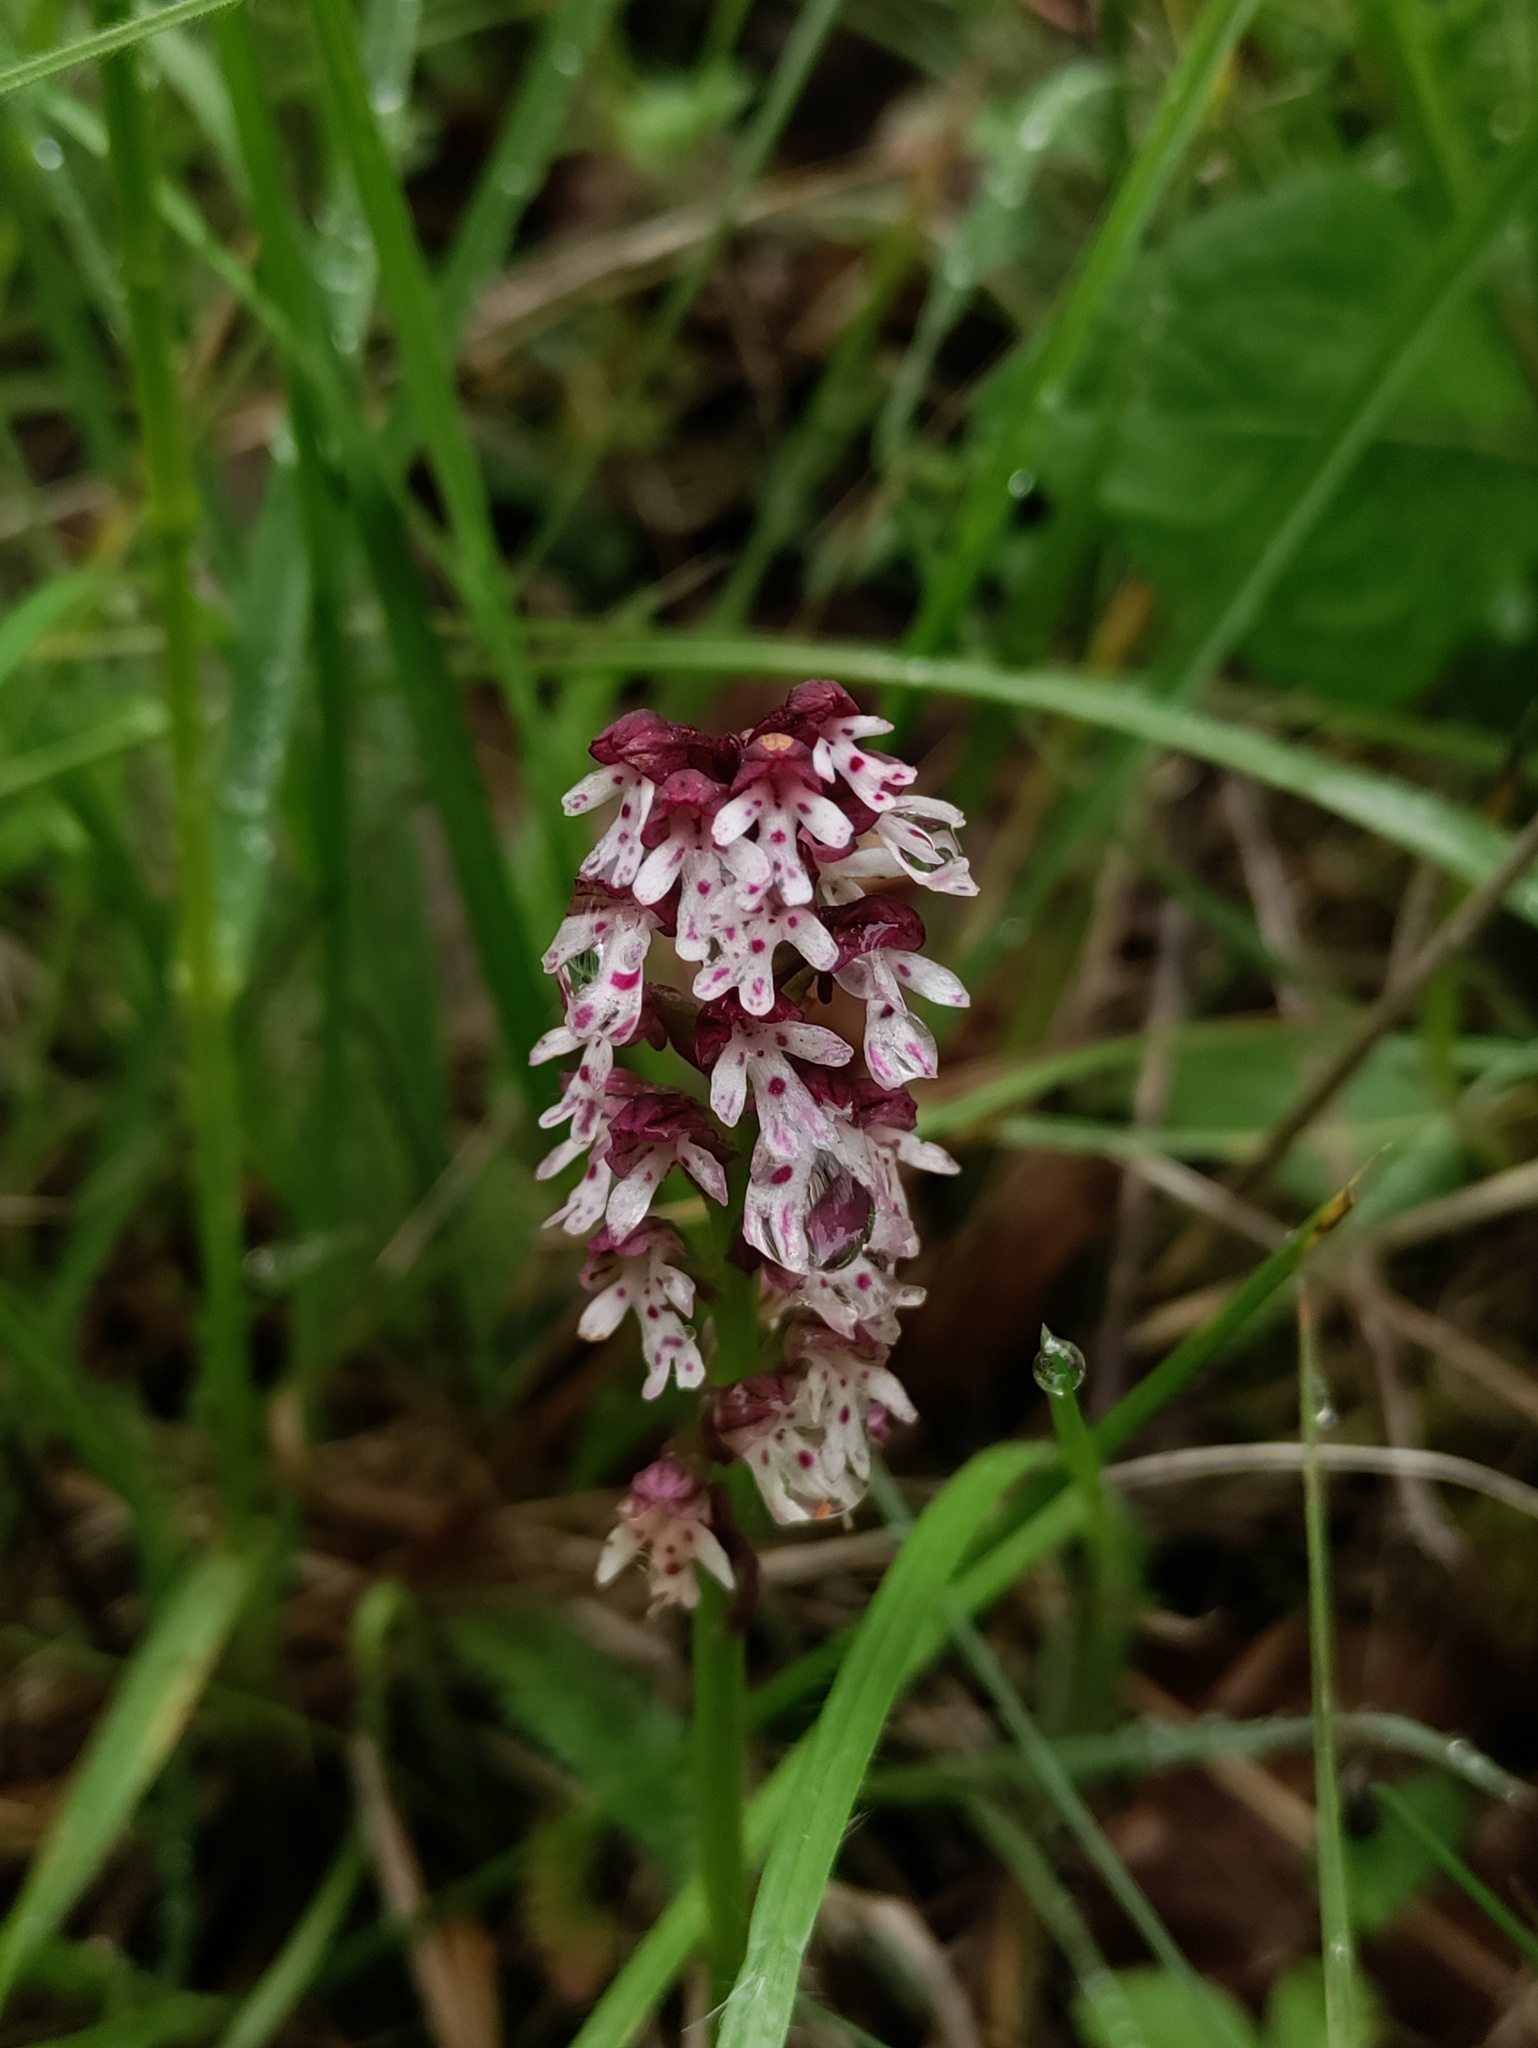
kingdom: Plantae
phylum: Tracheophyta
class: Liliopsida
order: Asparagales
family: Orchidaceae
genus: Neotinea
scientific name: Neotinea ustulata
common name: Burnt orchid
